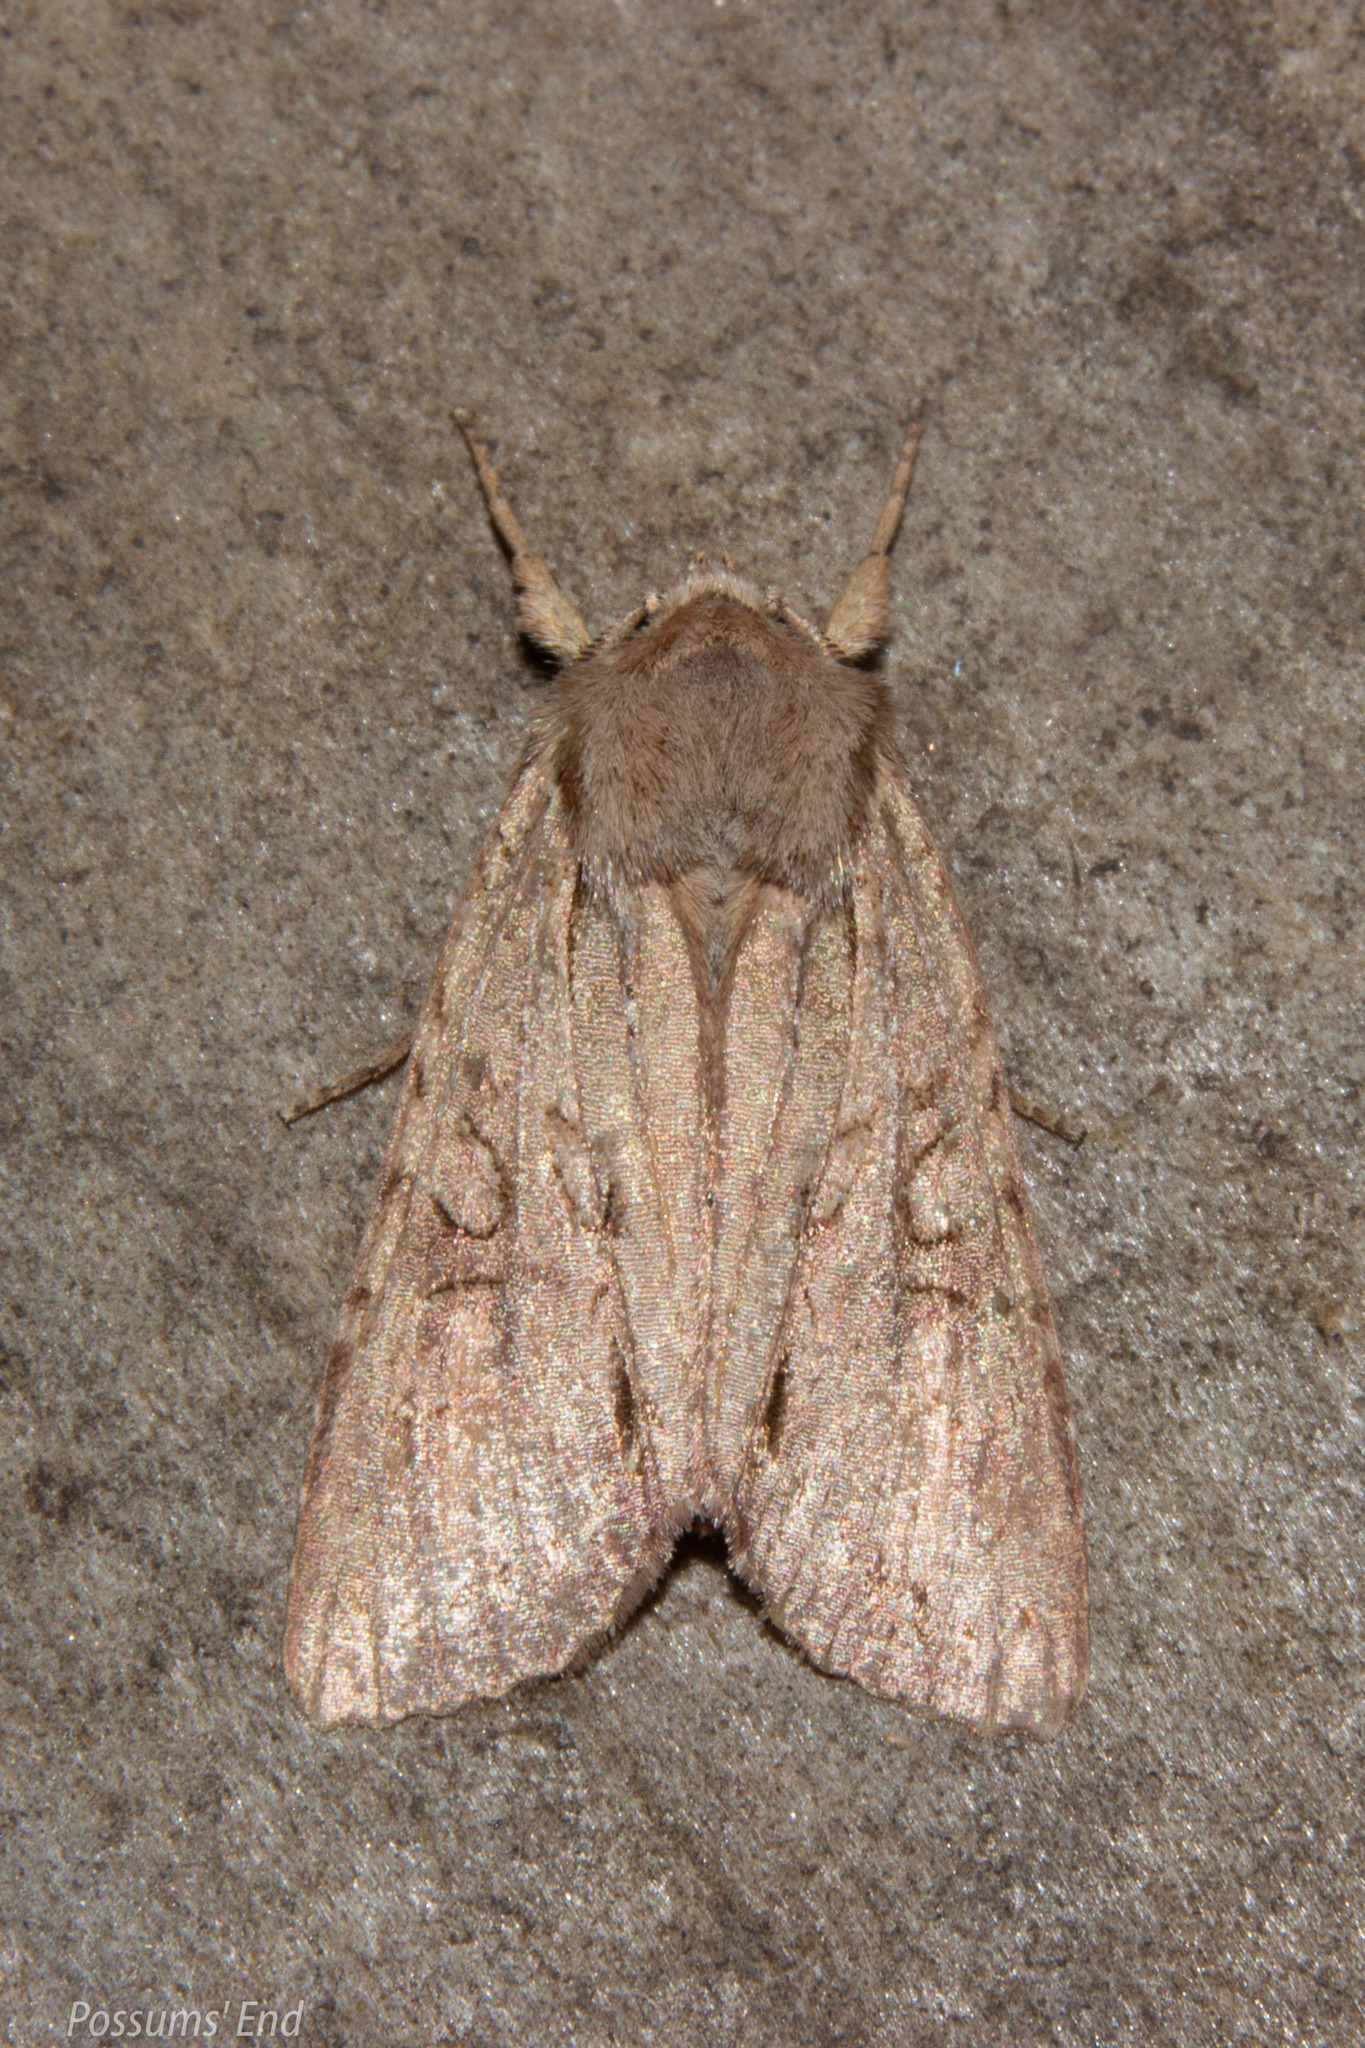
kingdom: Animalia
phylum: Arthropoda
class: Insecta
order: Lepidoptera
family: Noctuidae
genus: Ichneutica
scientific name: Ichneutica
